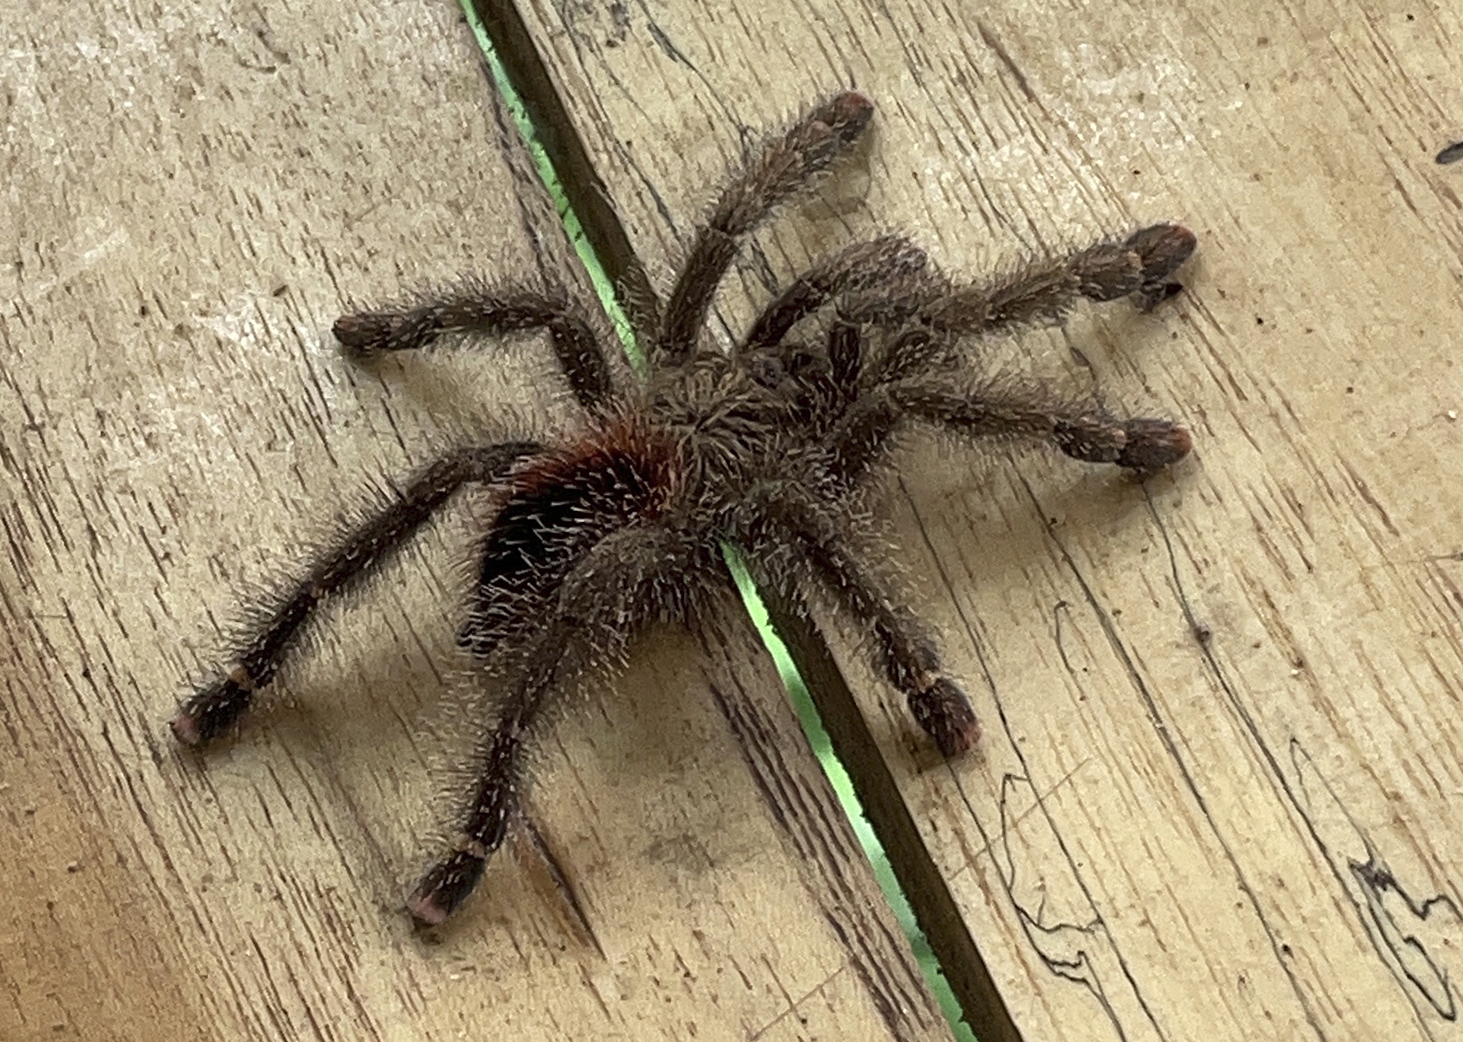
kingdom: Animalia
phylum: Arthropoda
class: Arachnida
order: Araneae
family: Theraphosidae
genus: Avicularia
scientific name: Avicularia juruensis
